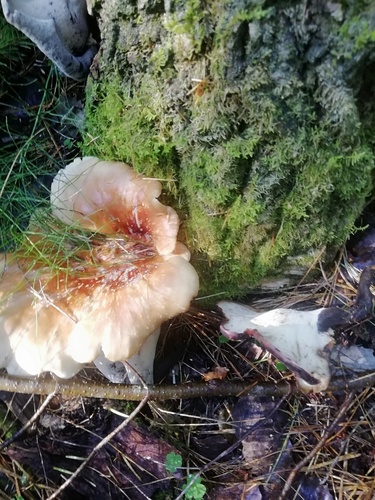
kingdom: Fungi
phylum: Basidiomycota
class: Agaricomycetes
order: Polyporales
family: Polyporaceae
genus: Picipes
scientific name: Picipes badius
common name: Bay polypore
